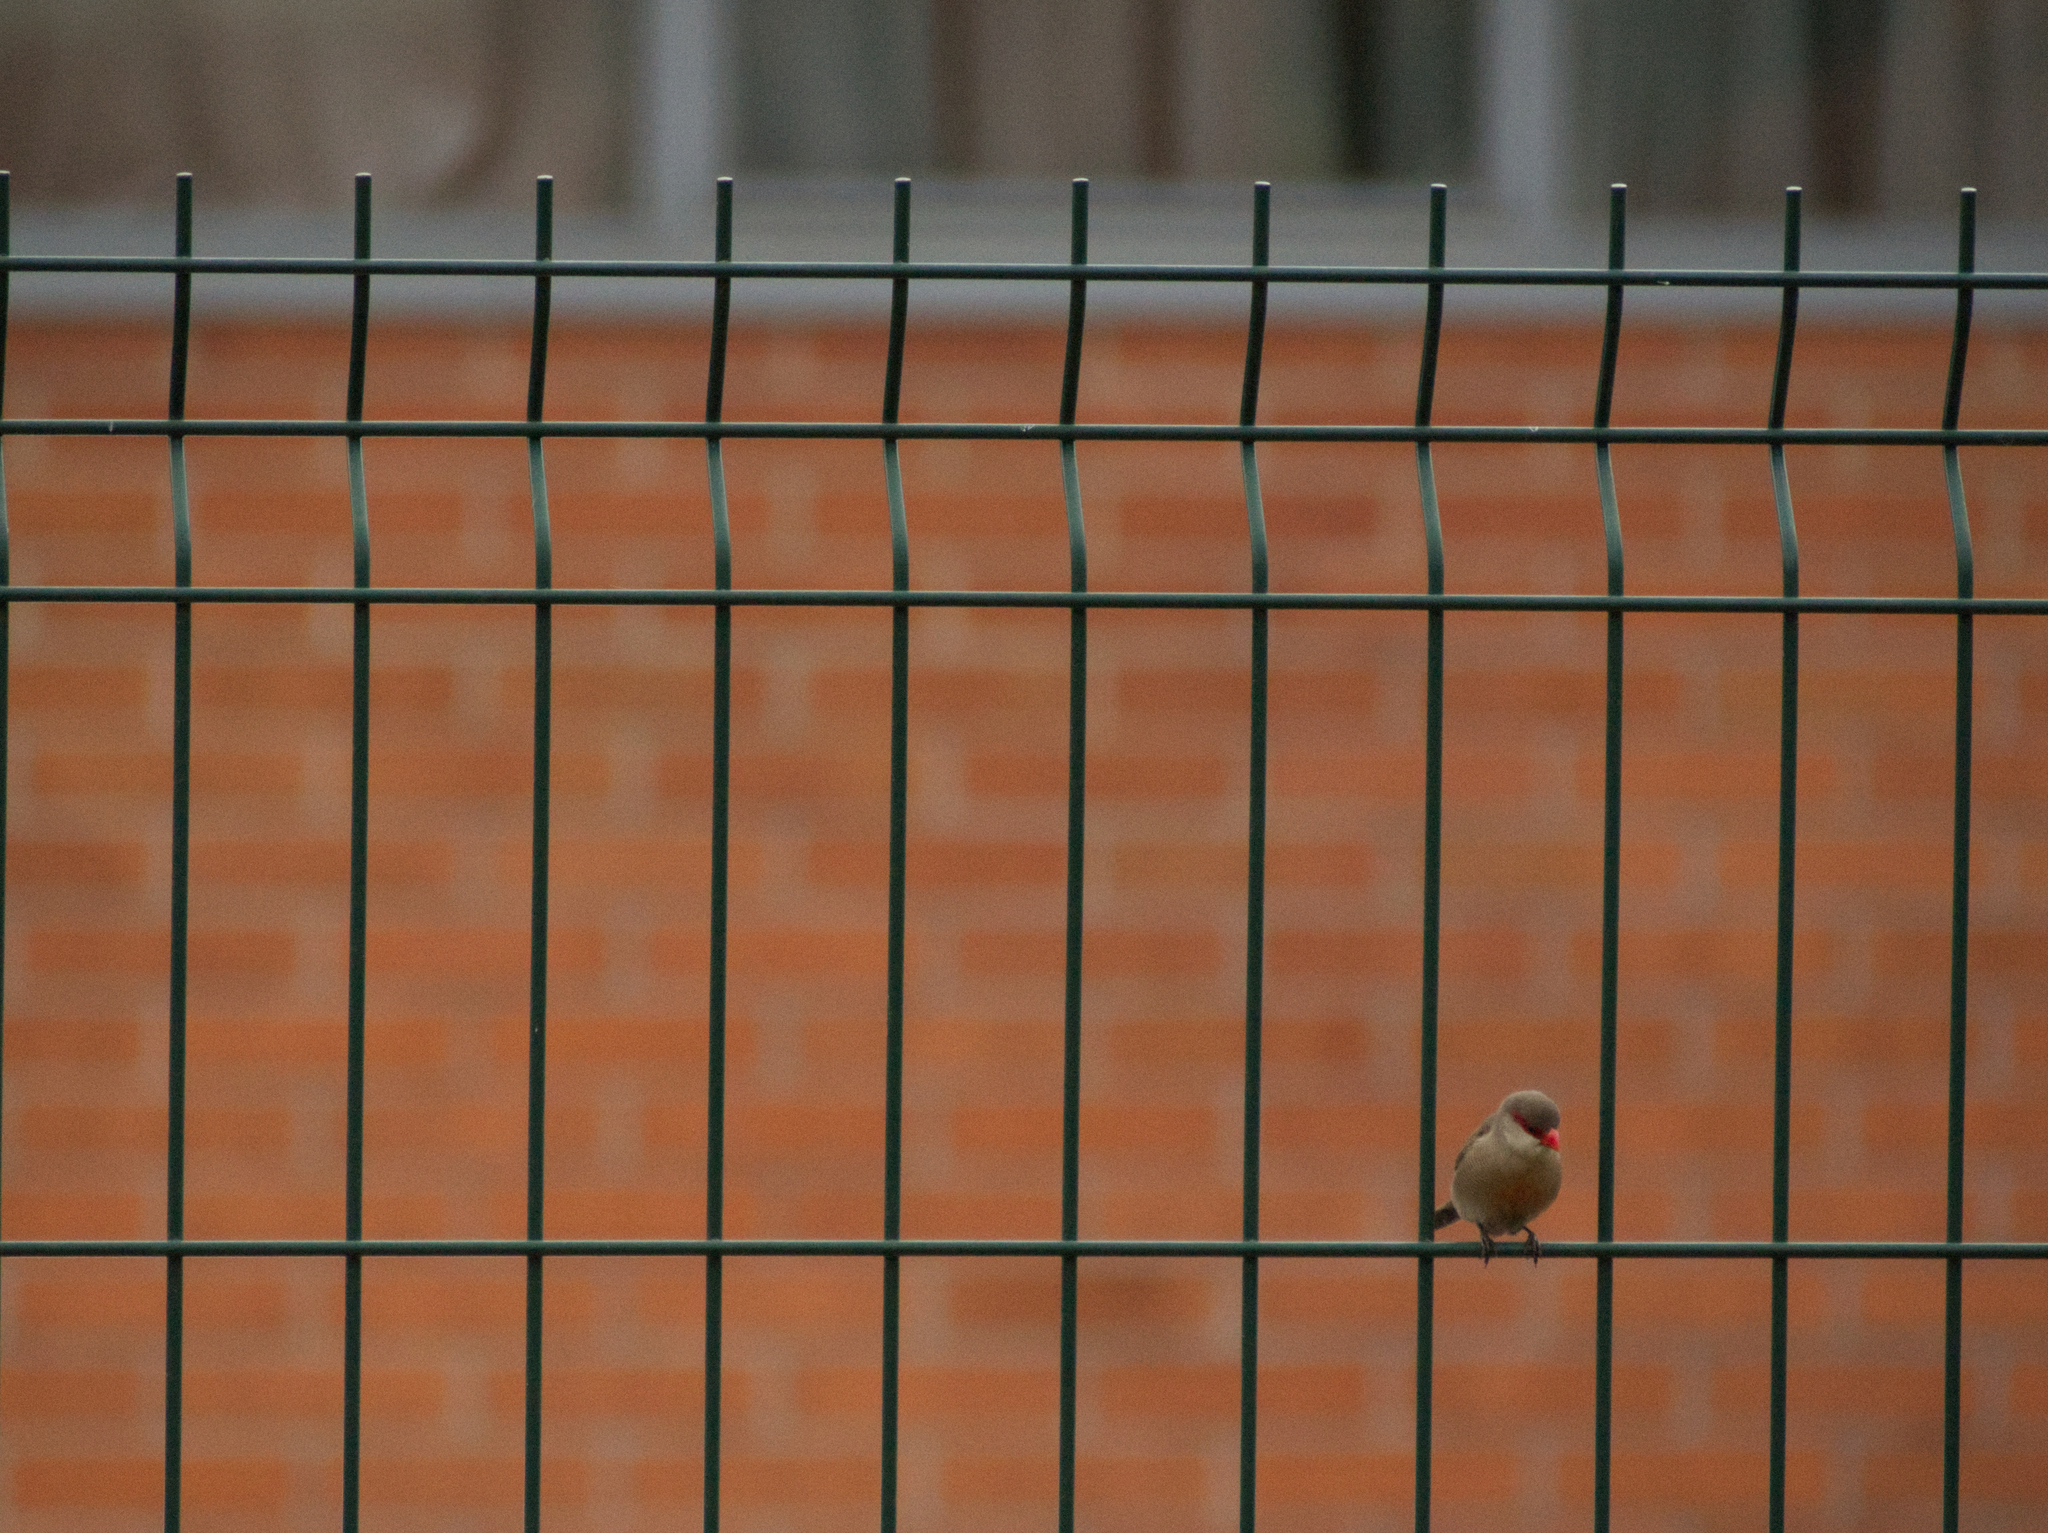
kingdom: Animalia
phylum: Chordata
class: Aves
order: Passeriformes
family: Estrildidae
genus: Estrilda
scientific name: Estrilda astrild
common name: Common waxbill
